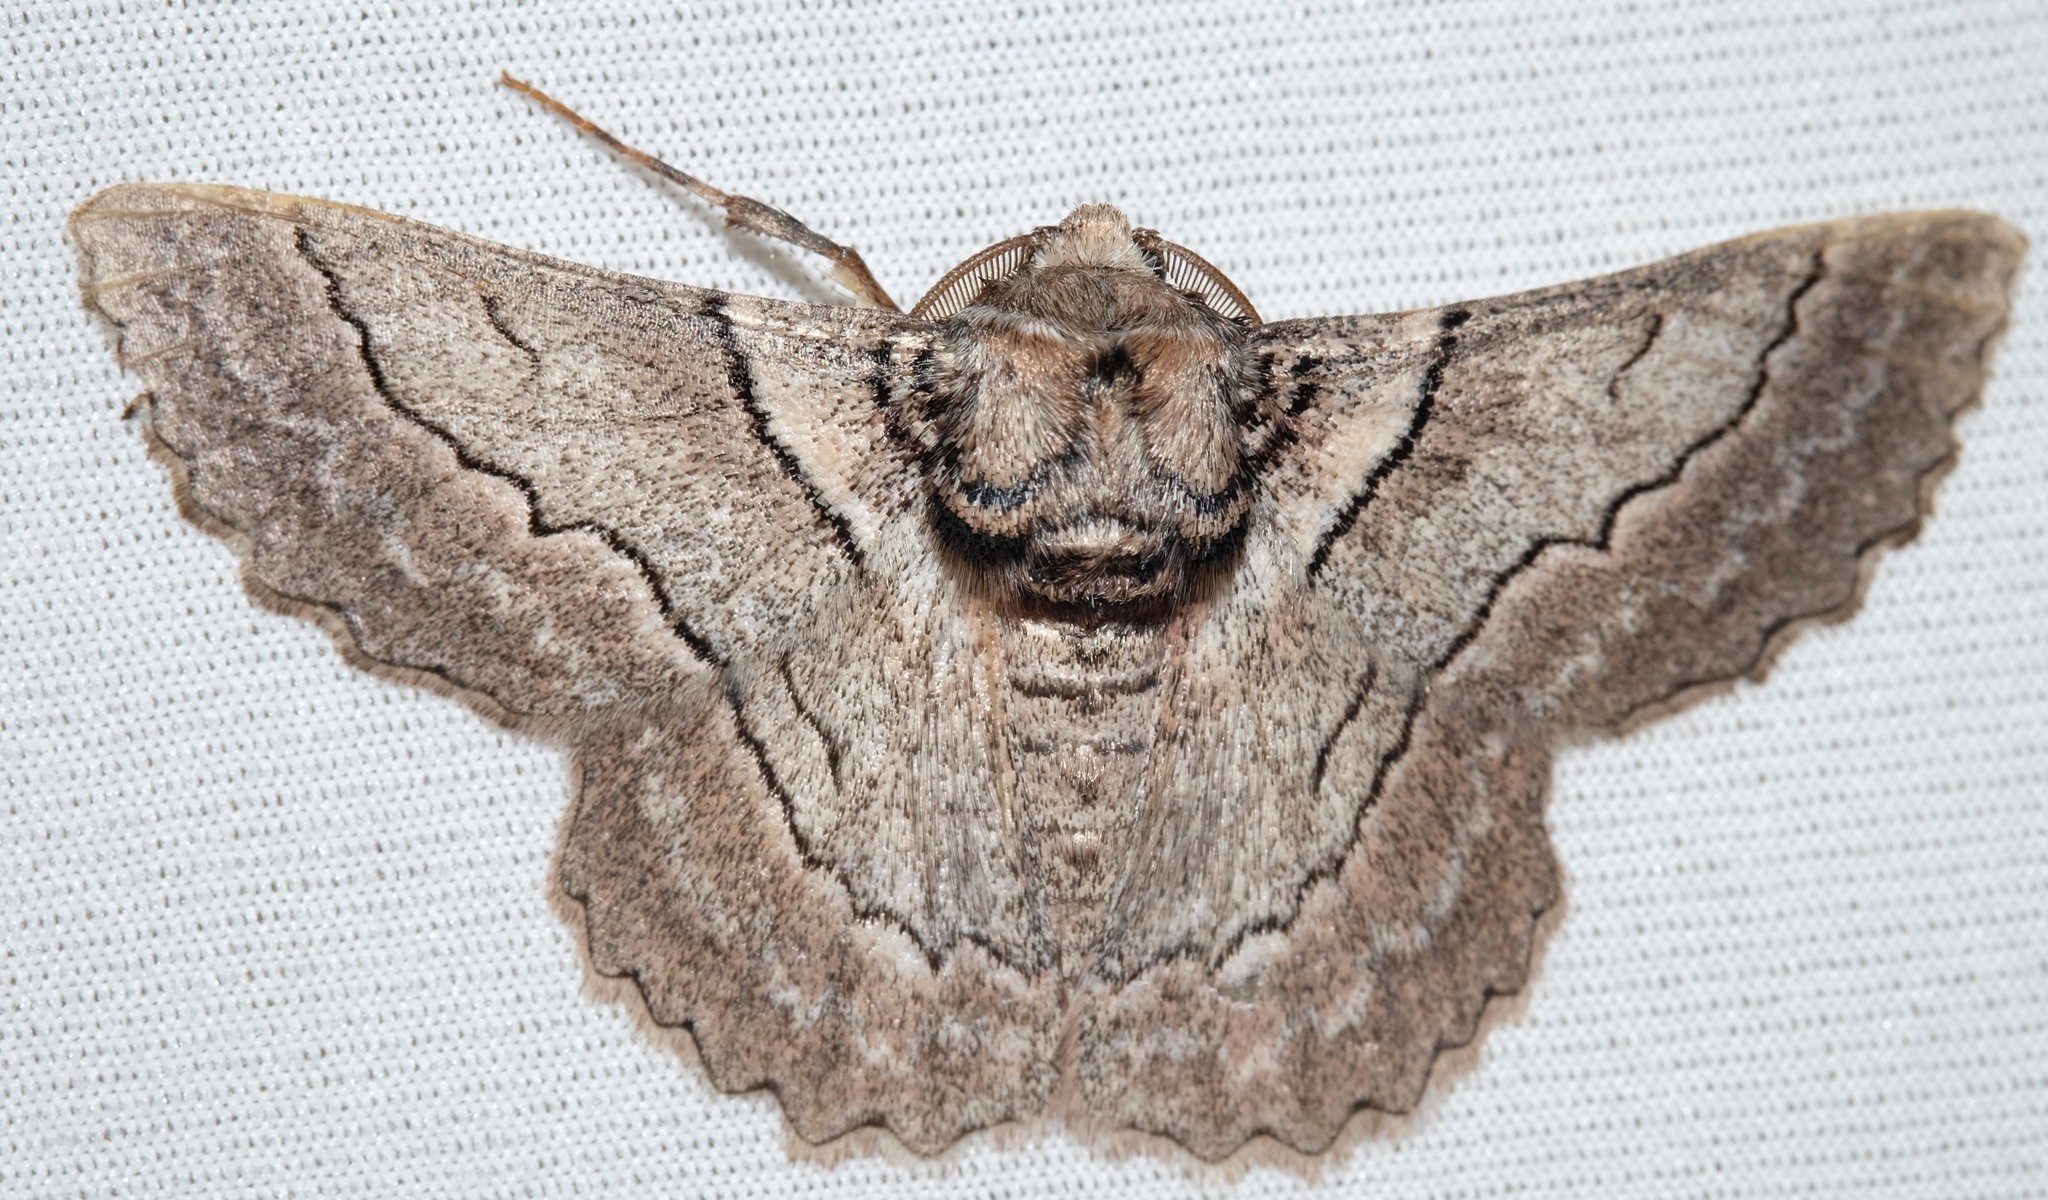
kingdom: Animalia
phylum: Arthropoda
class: Insecta
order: Lepidoptera
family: Geometridae
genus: Hypobapta
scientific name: Hypobapta tachyhalotaria
